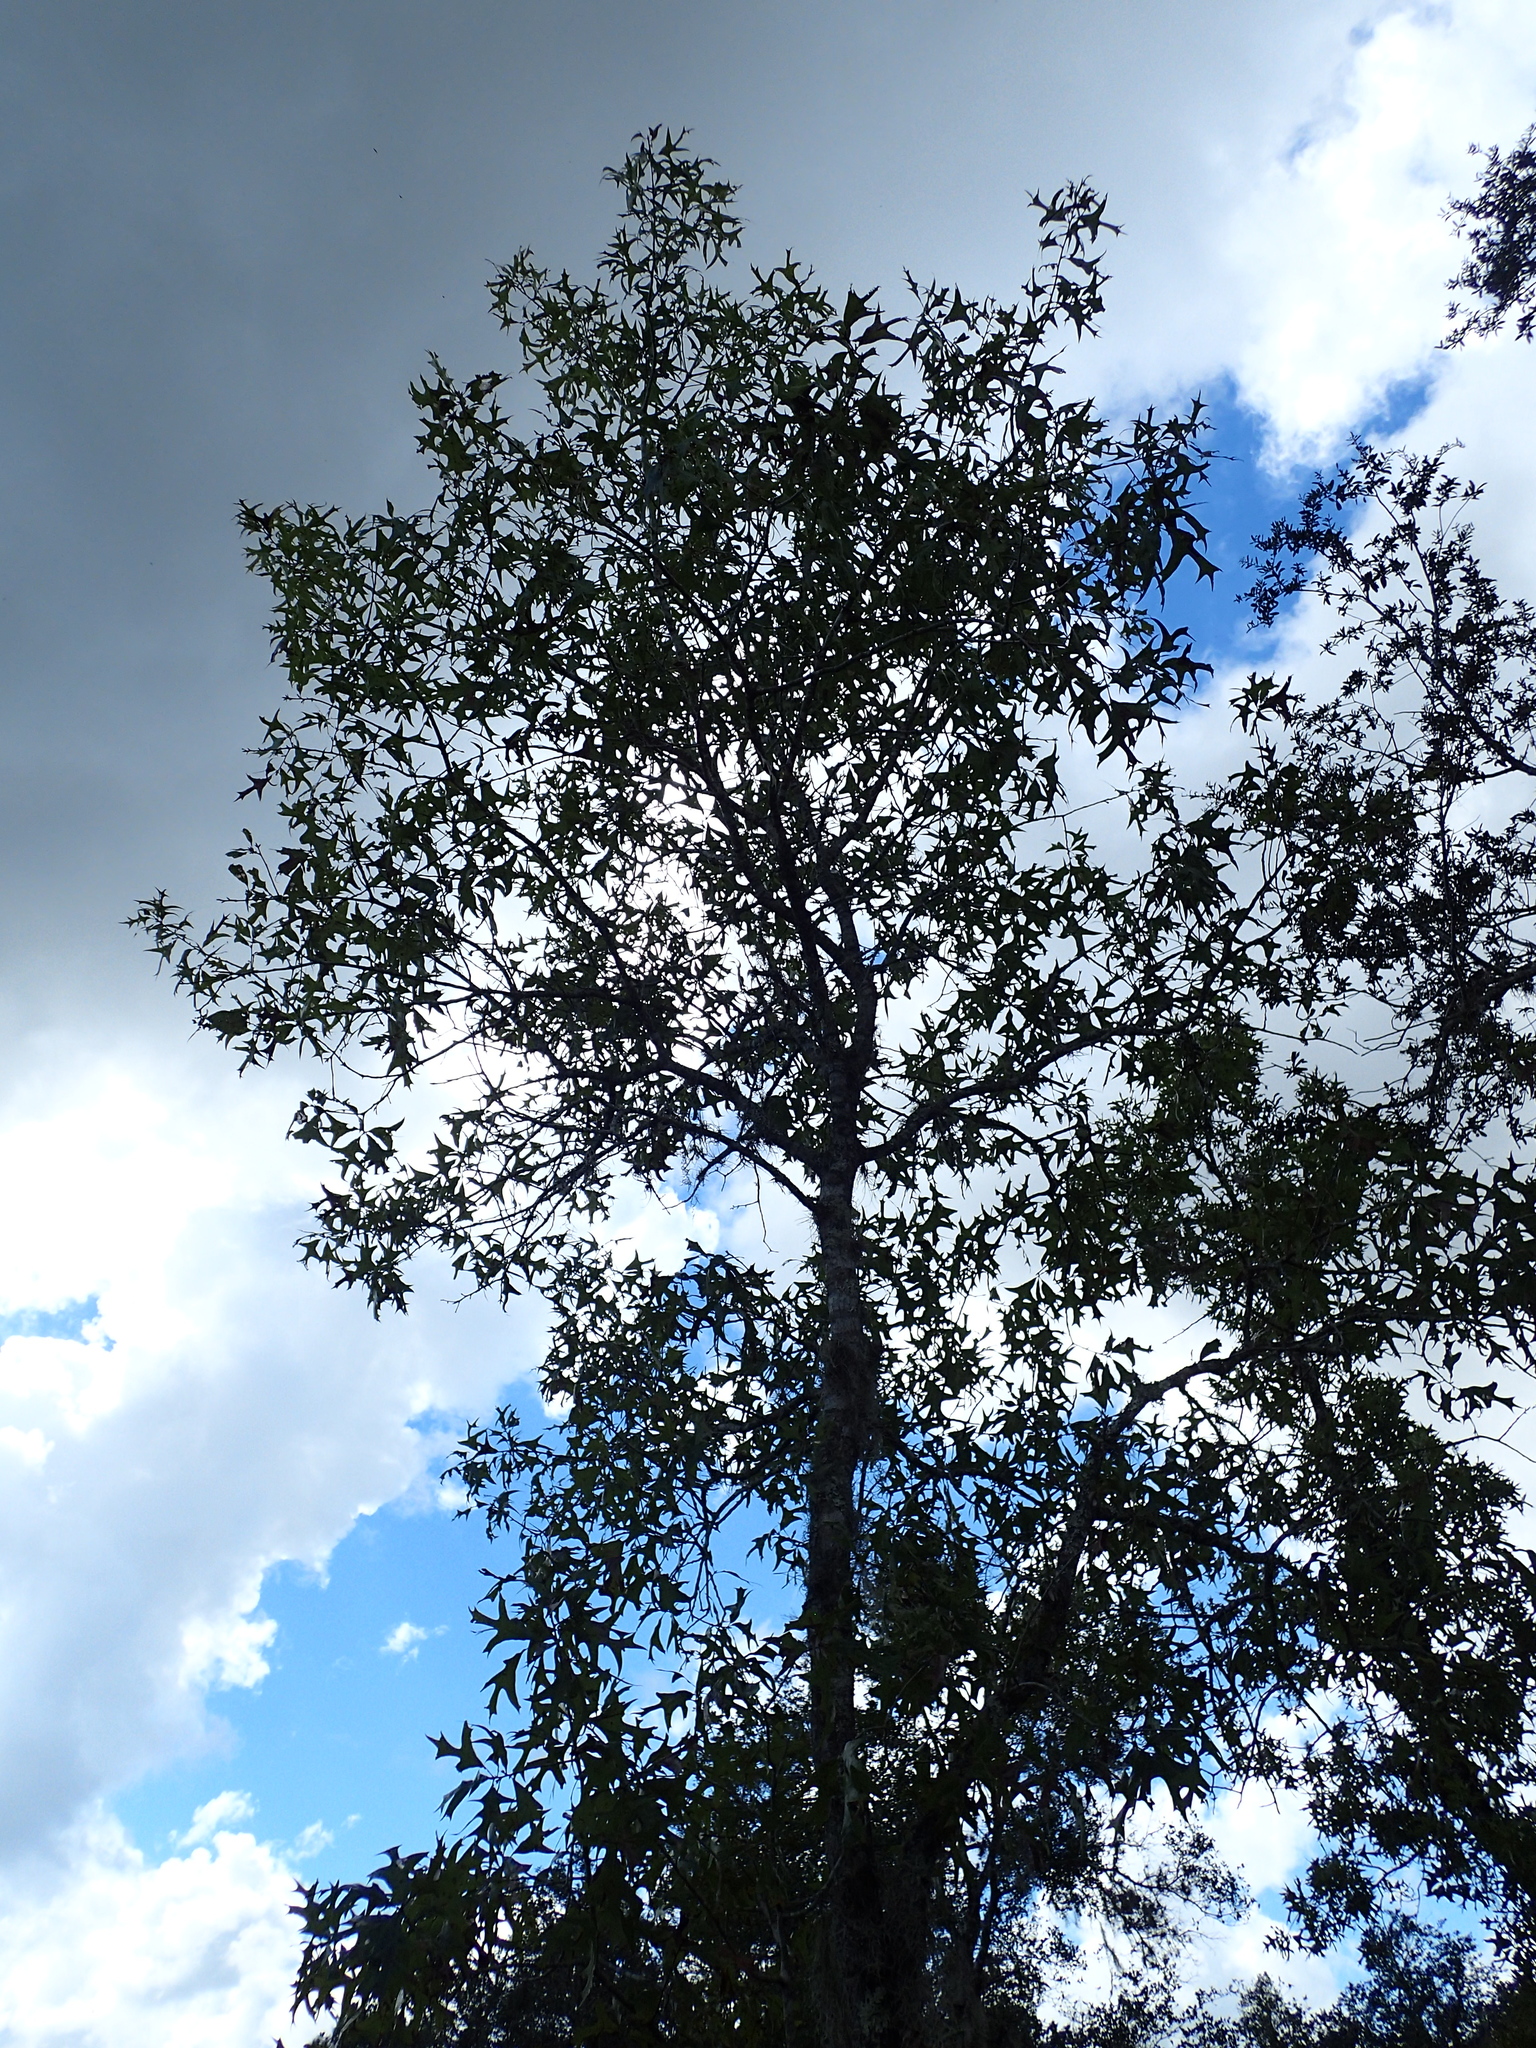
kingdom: Plantae
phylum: Tracheophyta
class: Magnoliopsida
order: Fagales
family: Fagaceae
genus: Quercus
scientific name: Quercus laevis
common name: Turkey oak
